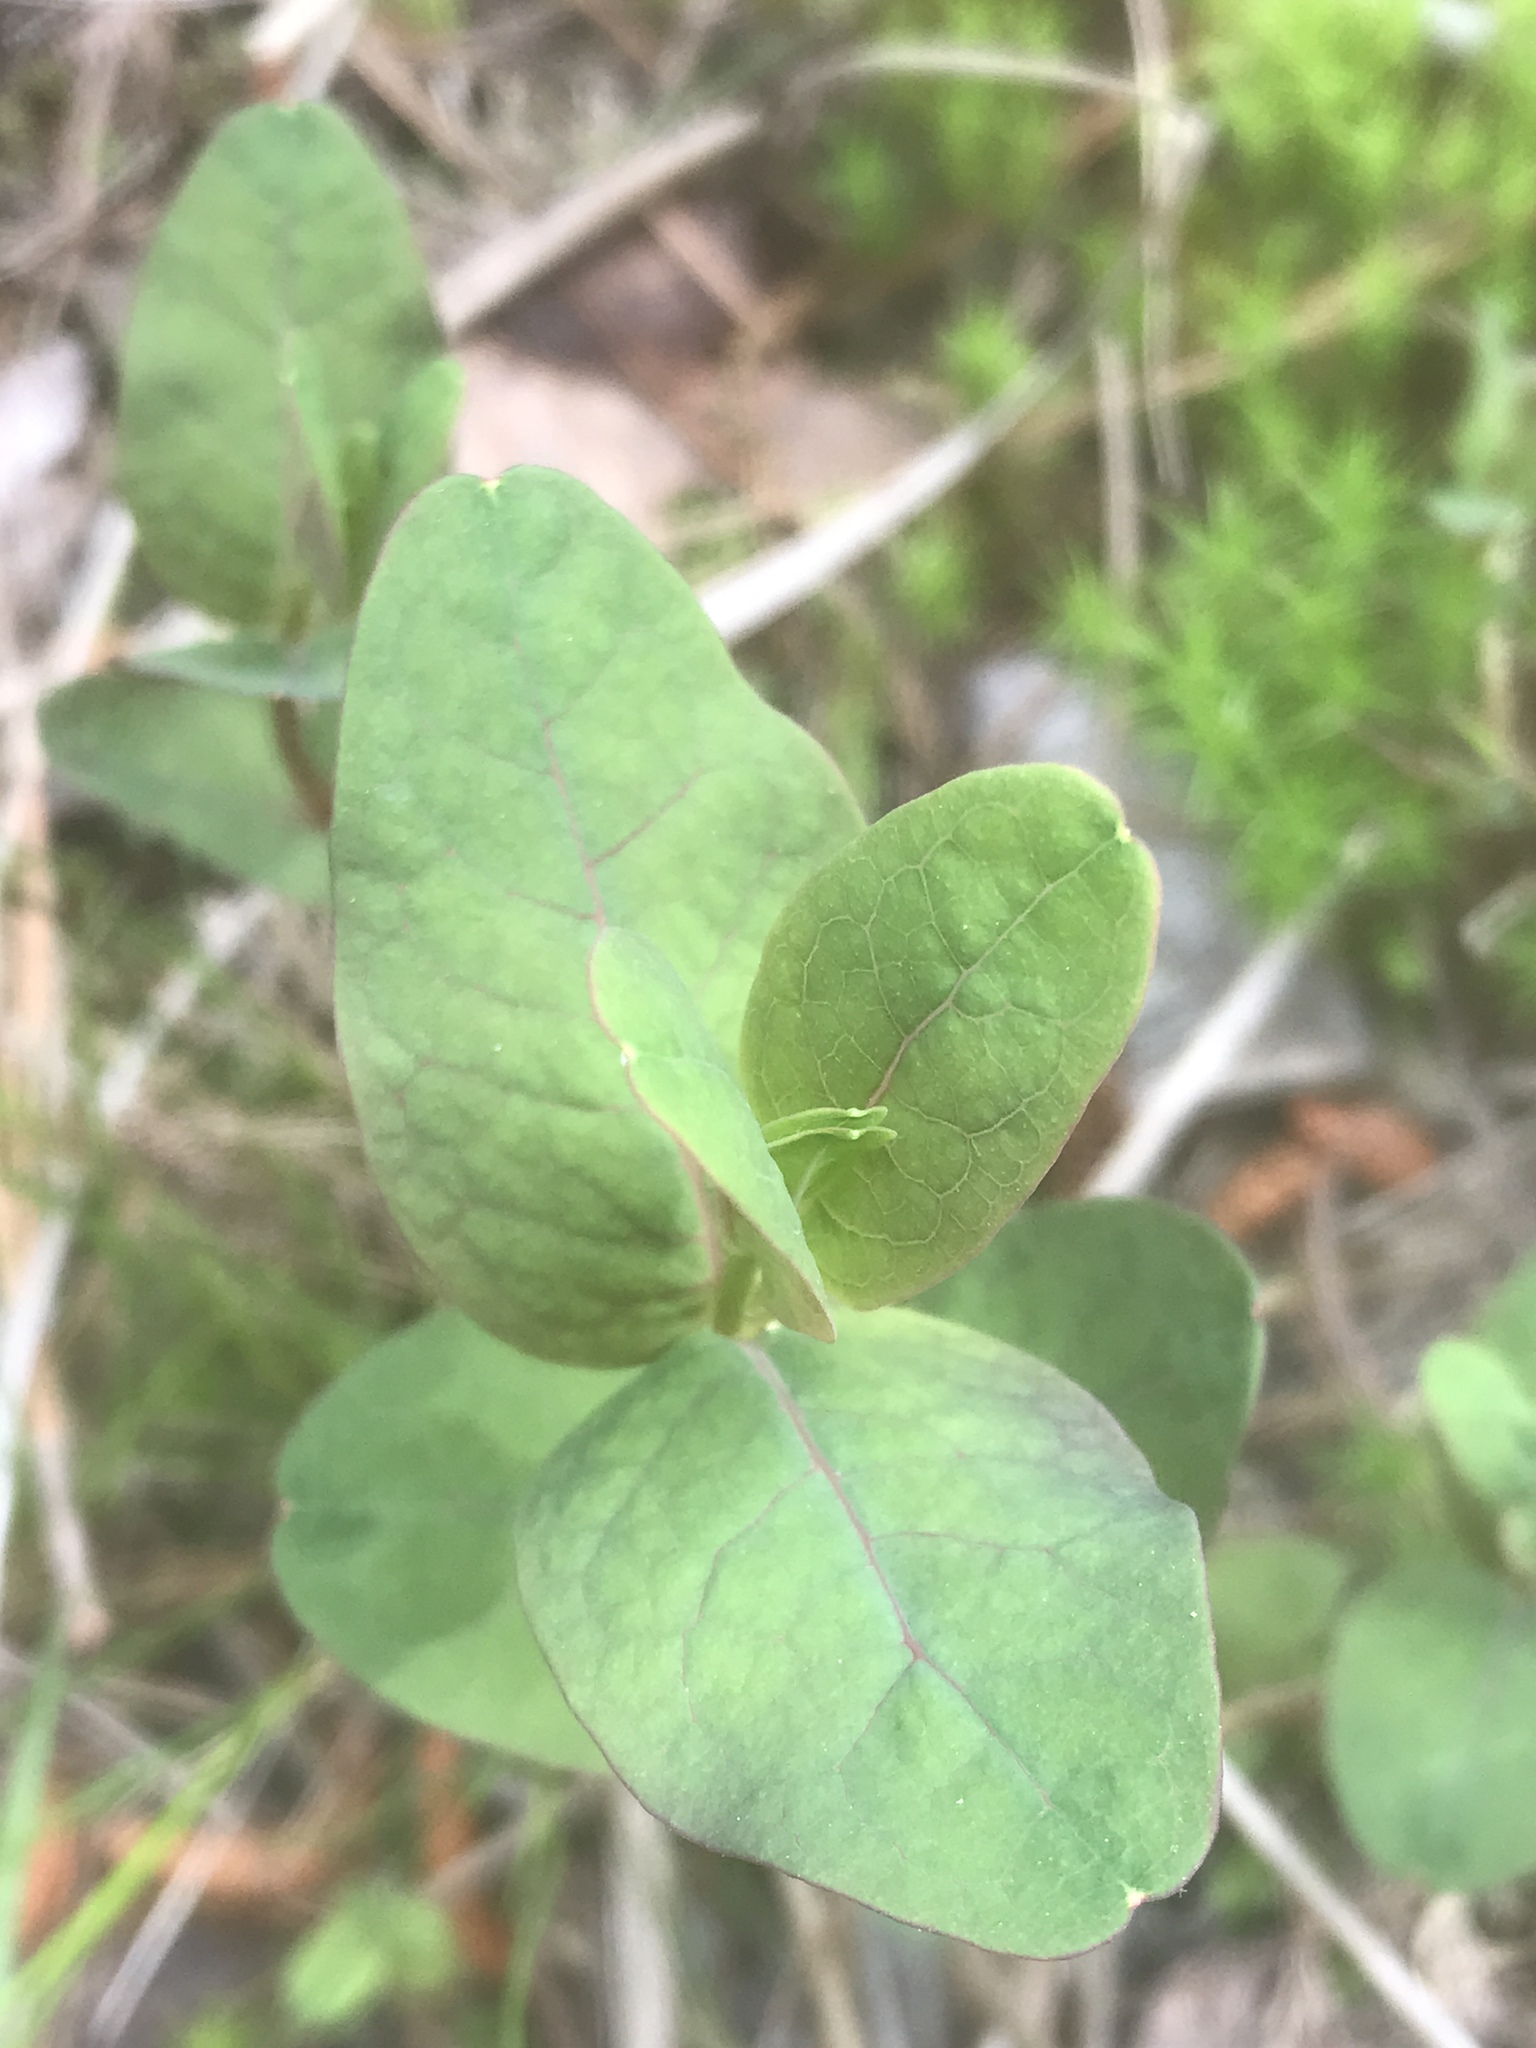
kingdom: Plantae
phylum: Tracheophyta
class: Magnoliopsida
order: Malpighiales
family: Hypericaceae
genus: Triadenum
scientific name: Triadenum virginicum
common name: Marsh st. john's-wort
